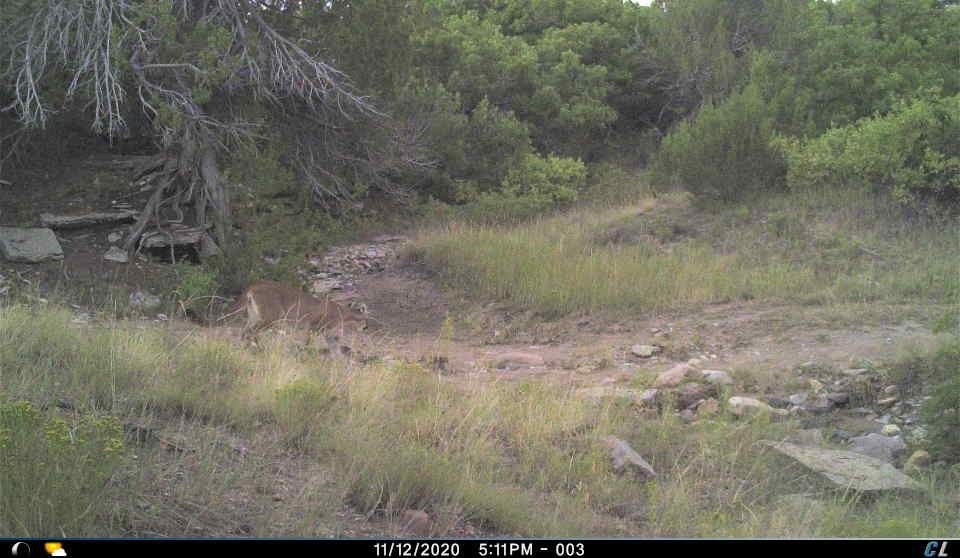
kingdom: Animalia
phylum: Chordata
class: Mammalia
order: Carnivora
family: Felidae
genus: Puma
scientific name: Puma concolor
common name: Puma
